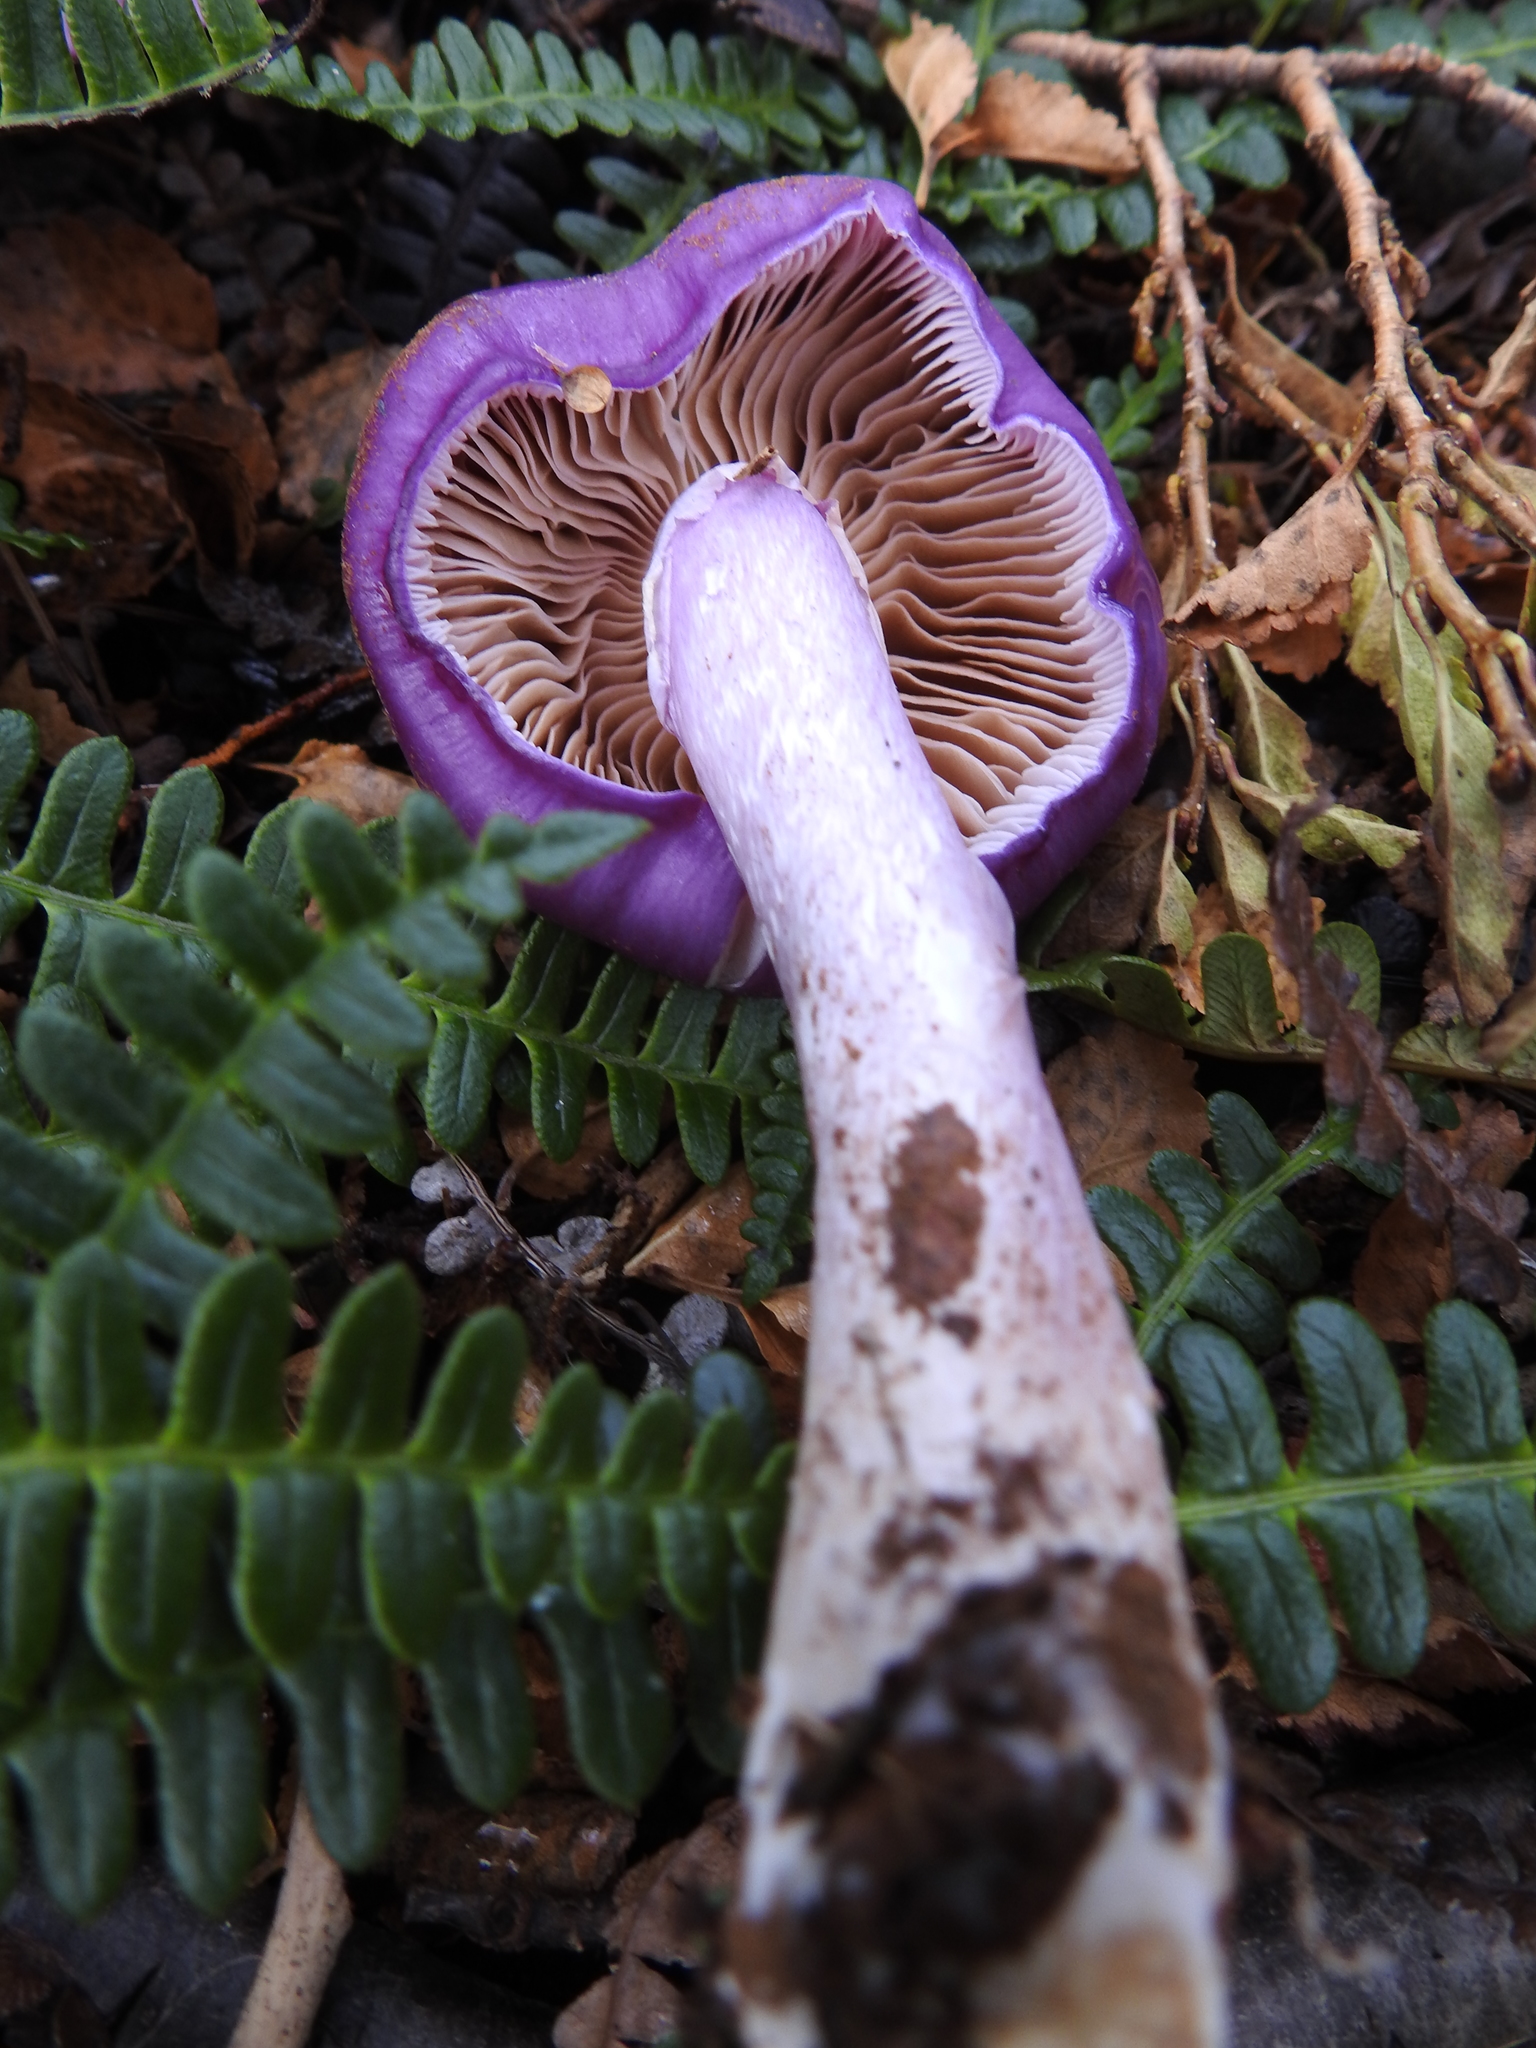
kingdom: Fungi
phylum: Basidiomycota
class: Agaricomycetes
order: Agaricales
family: Cortinariaceae
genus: Cortinarius
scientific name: Cortinarius magellanicus
